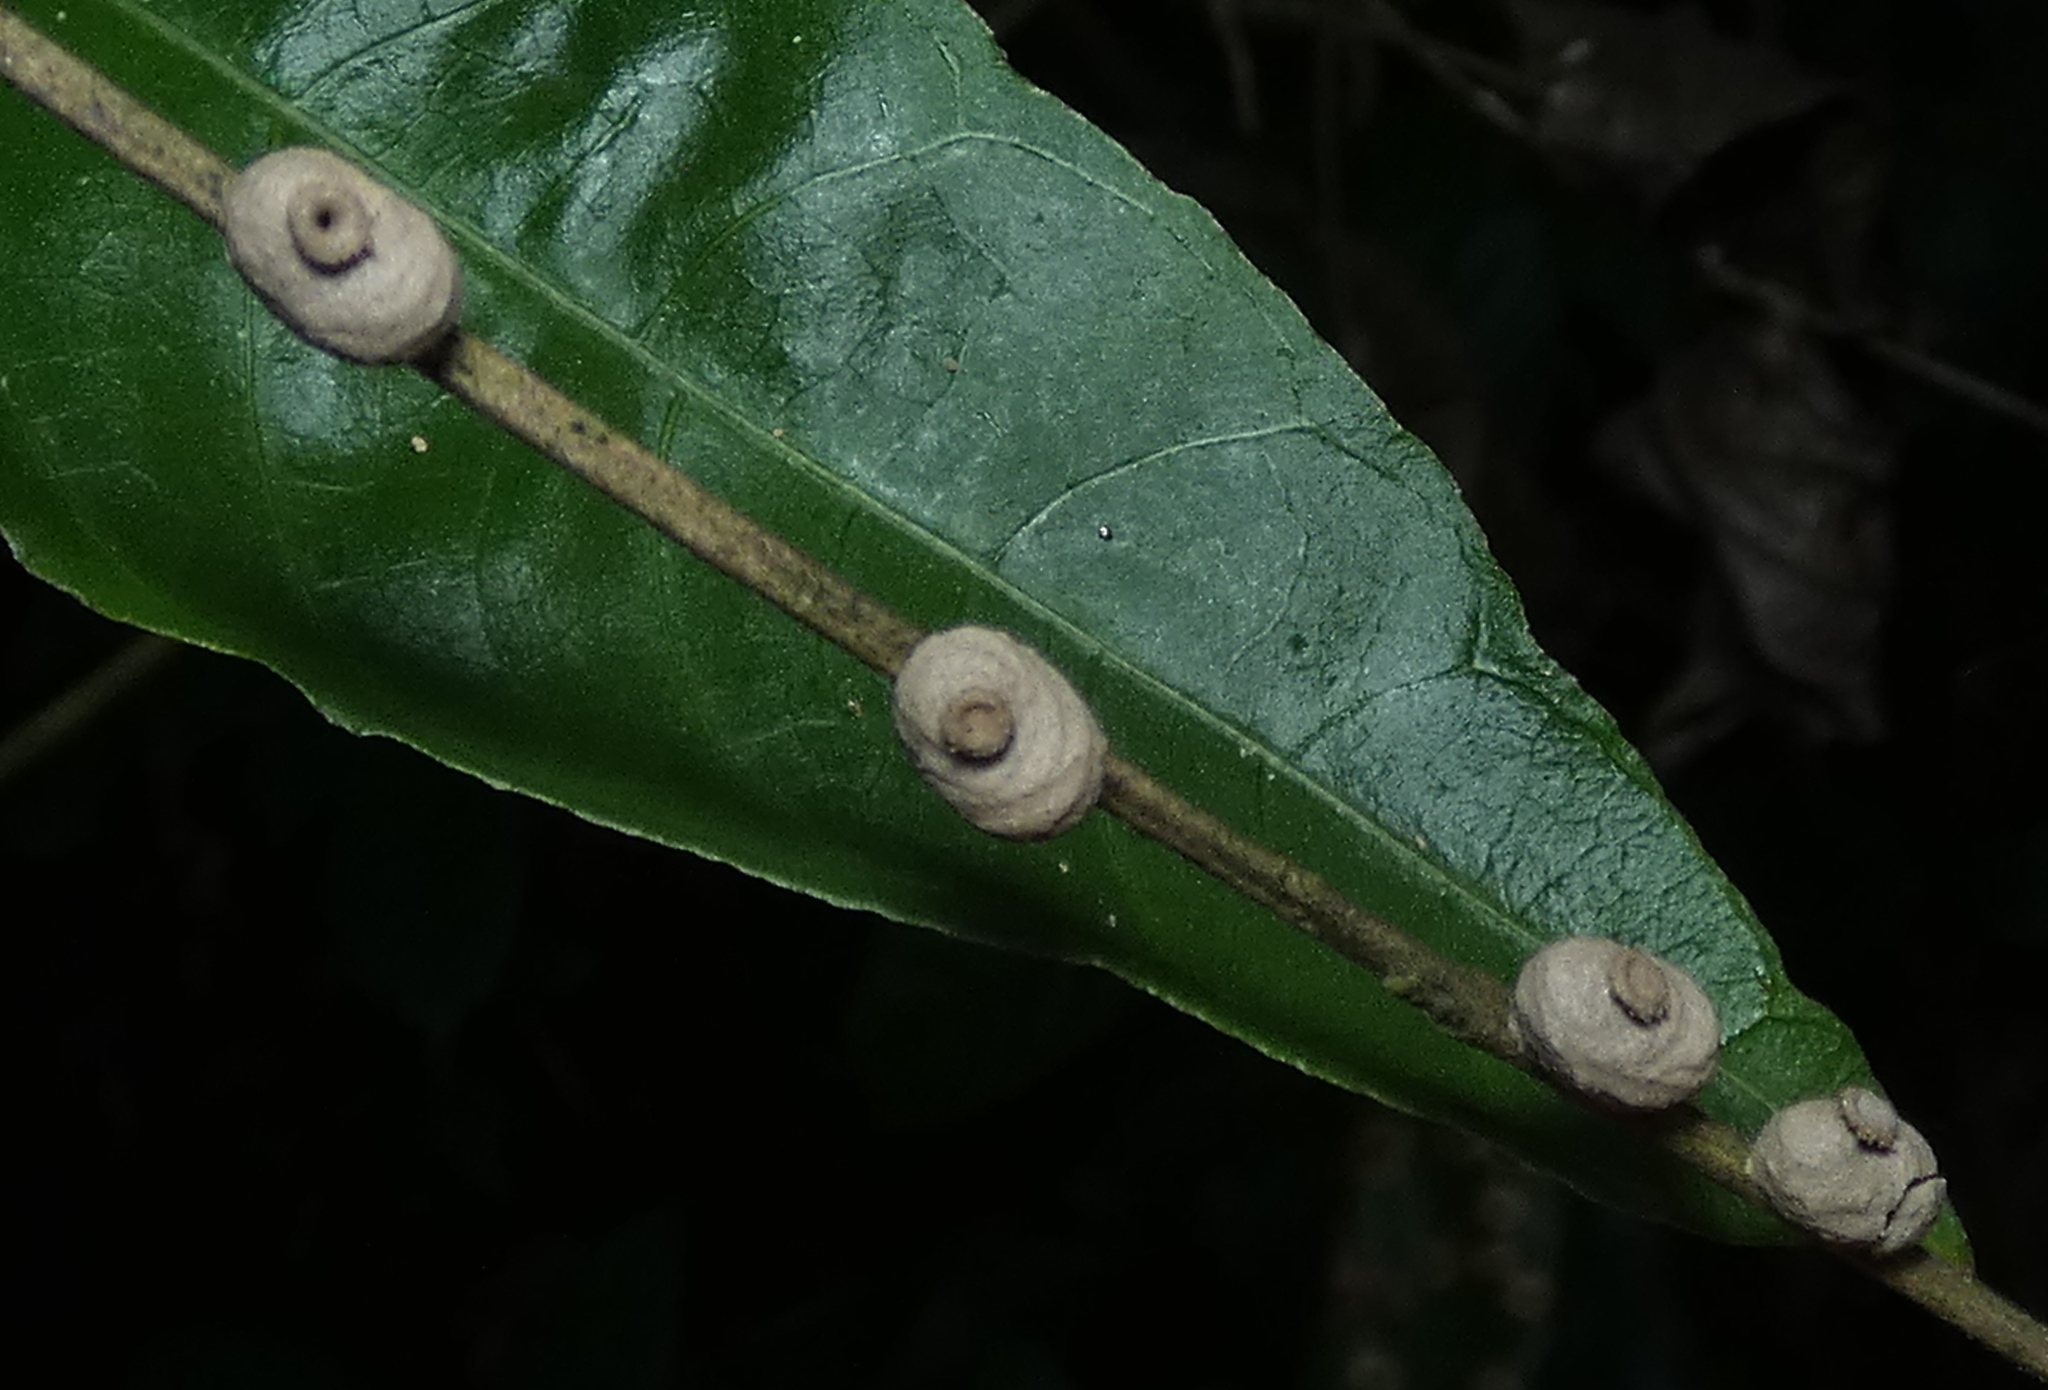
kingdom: Animalia
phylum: Arthropoda
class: Insecta
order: Hymenoptera
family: Eumenidae
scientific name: Eumenidae
